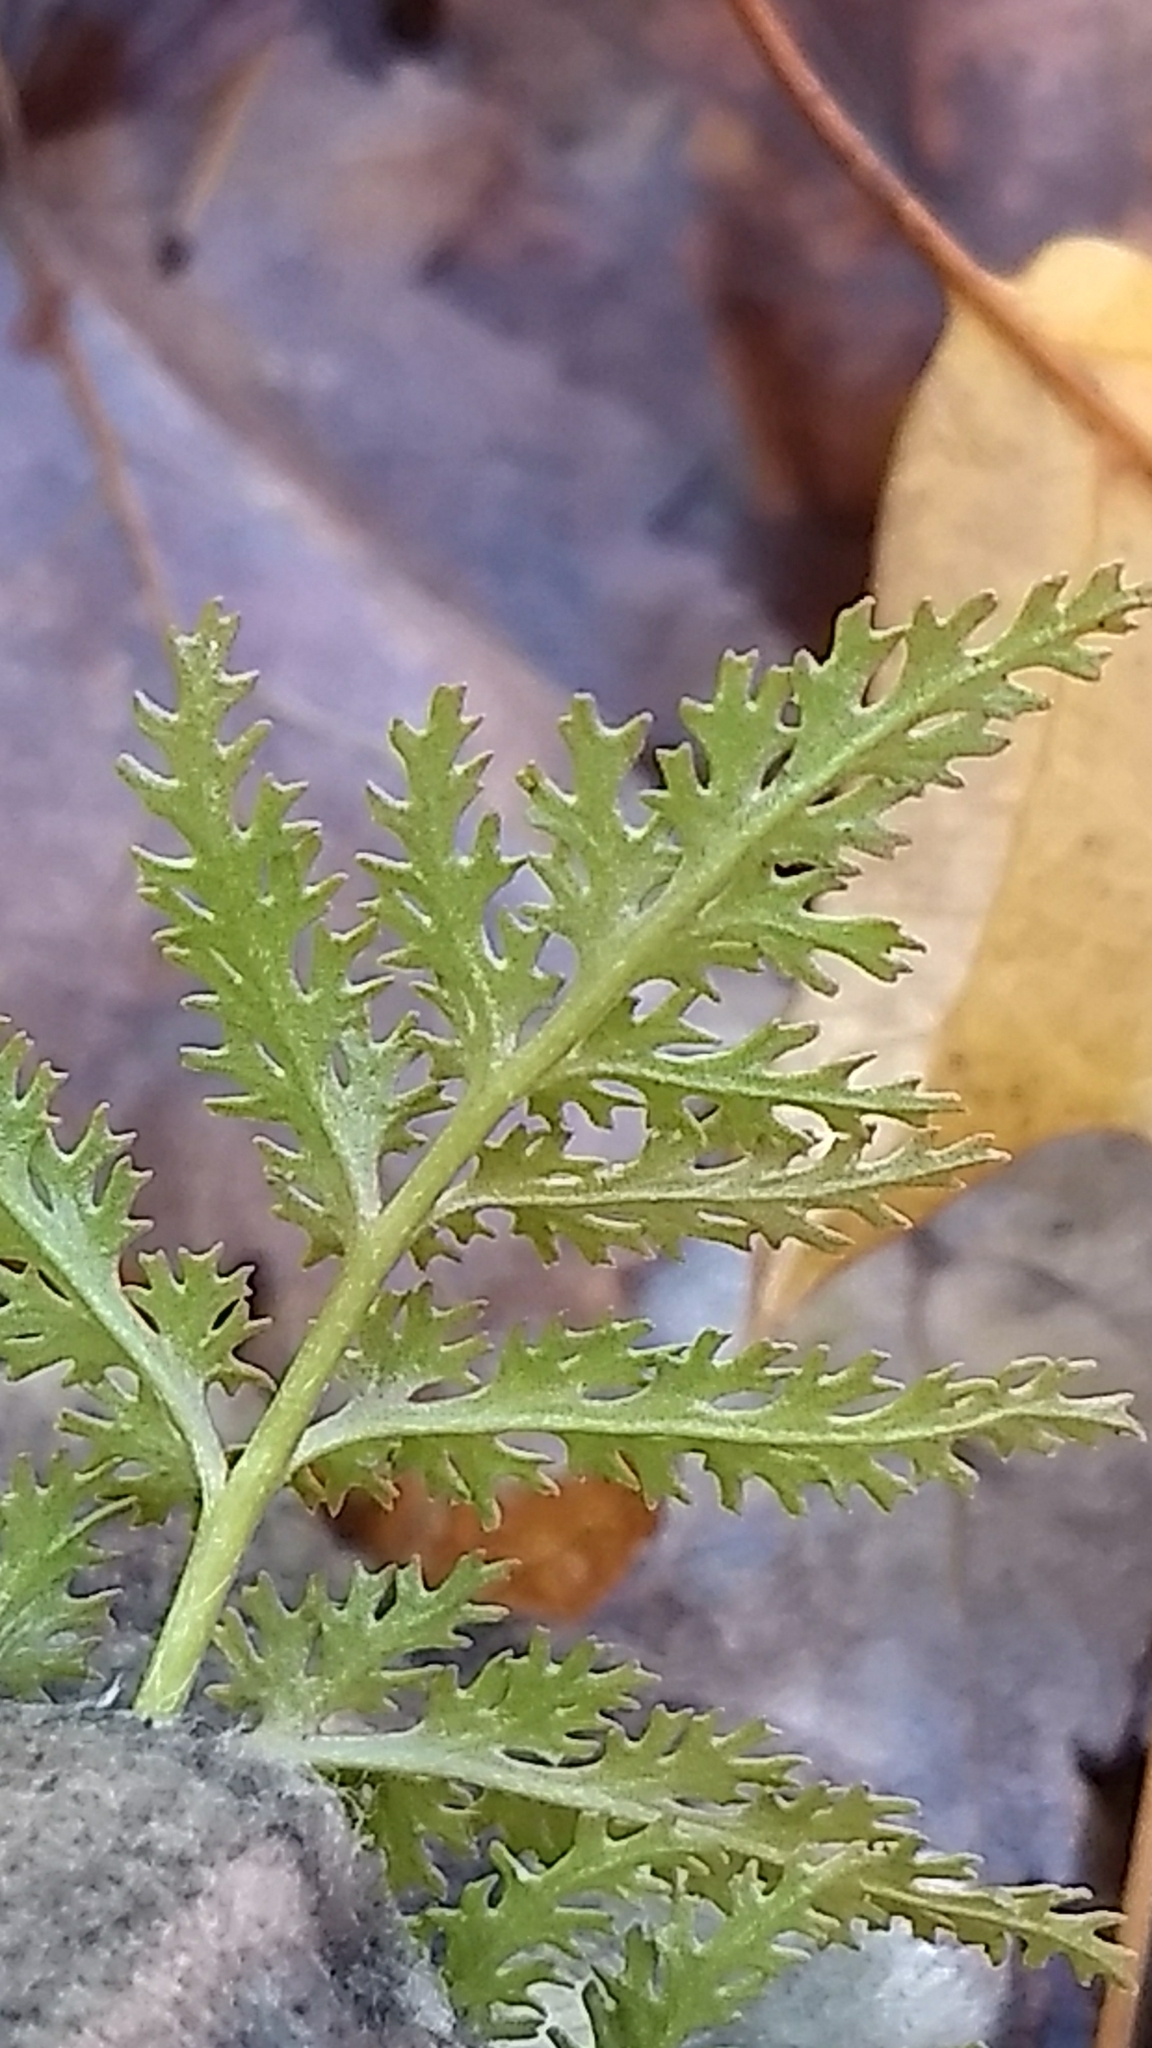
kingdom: Plantae
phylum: Tracheophyta
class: Polypodiopsida
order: Ophioglossales
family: Ophioglossaceae
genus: Sceptridium
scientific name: Sceptridium dissectum
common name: Cut-leaved grapefern
